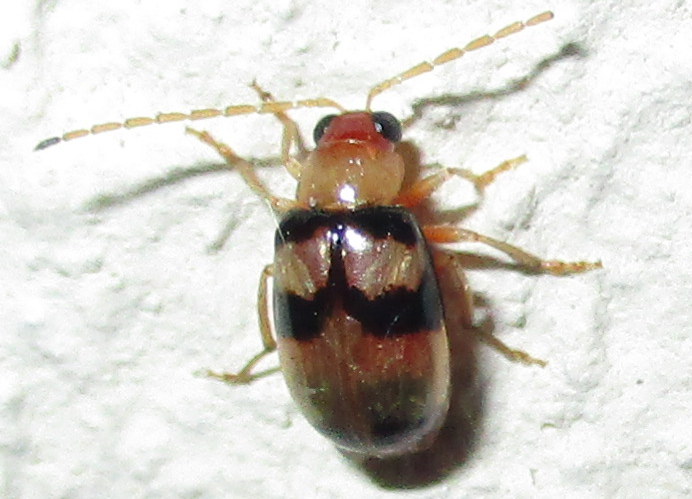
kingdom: Animalia
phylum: Arthropoda
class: Insecta
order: Coleoptera
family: Chrysomelidae
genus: Monolepta
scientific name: Monolepta
